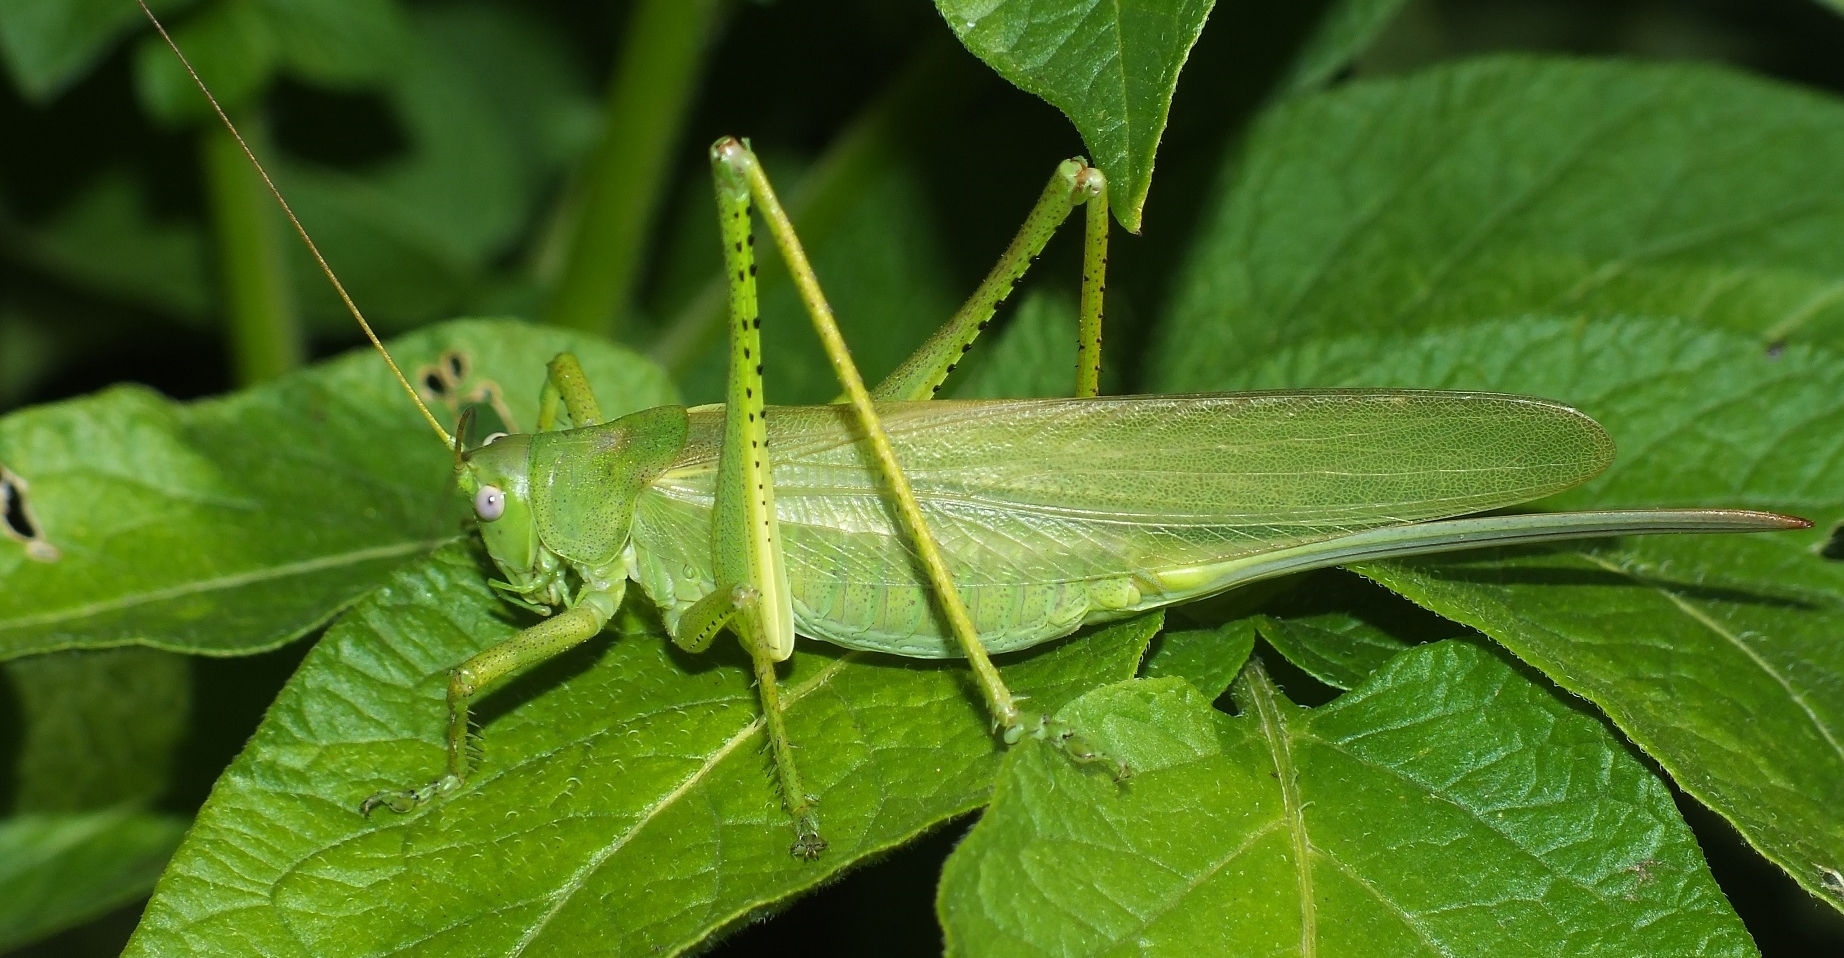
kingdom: Animalia
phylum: Arthropoda
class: Insecta
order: Orthoptera
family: Tettigoniidae
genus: Tettigonia
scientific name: Tettigonia caudata
